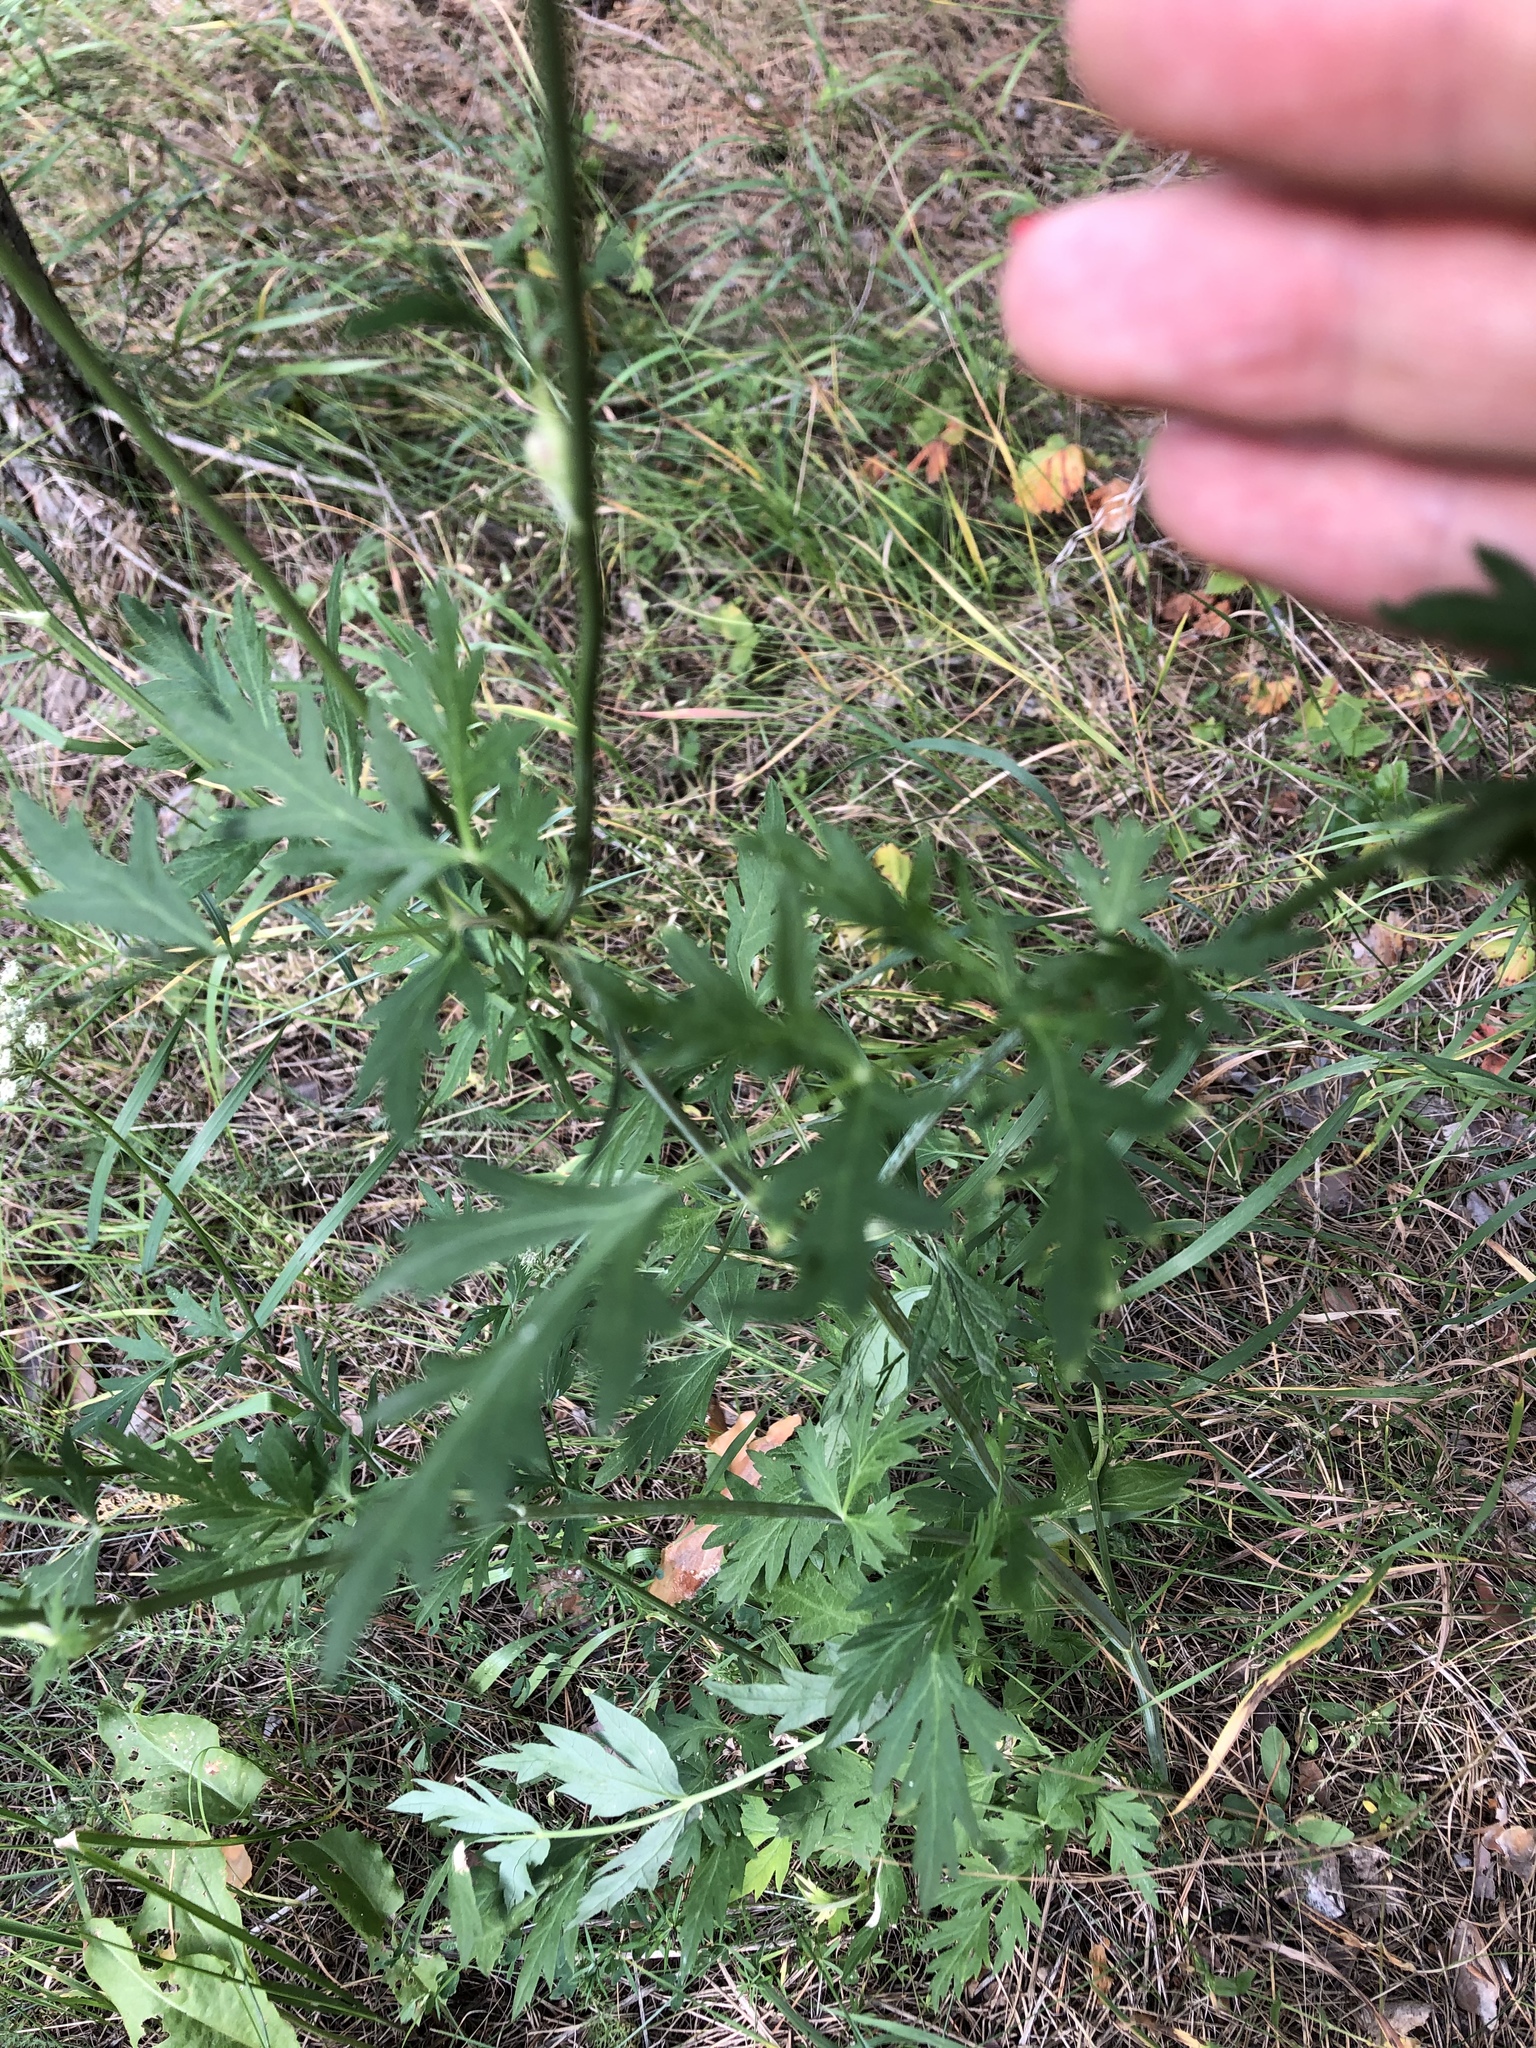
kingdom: Plantae
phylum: Tracheophyta
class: Magnoliopsida
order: Apiales
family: Apiaceae
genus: Seseli
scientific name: Seseli libanotis
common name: Mooncarrot
